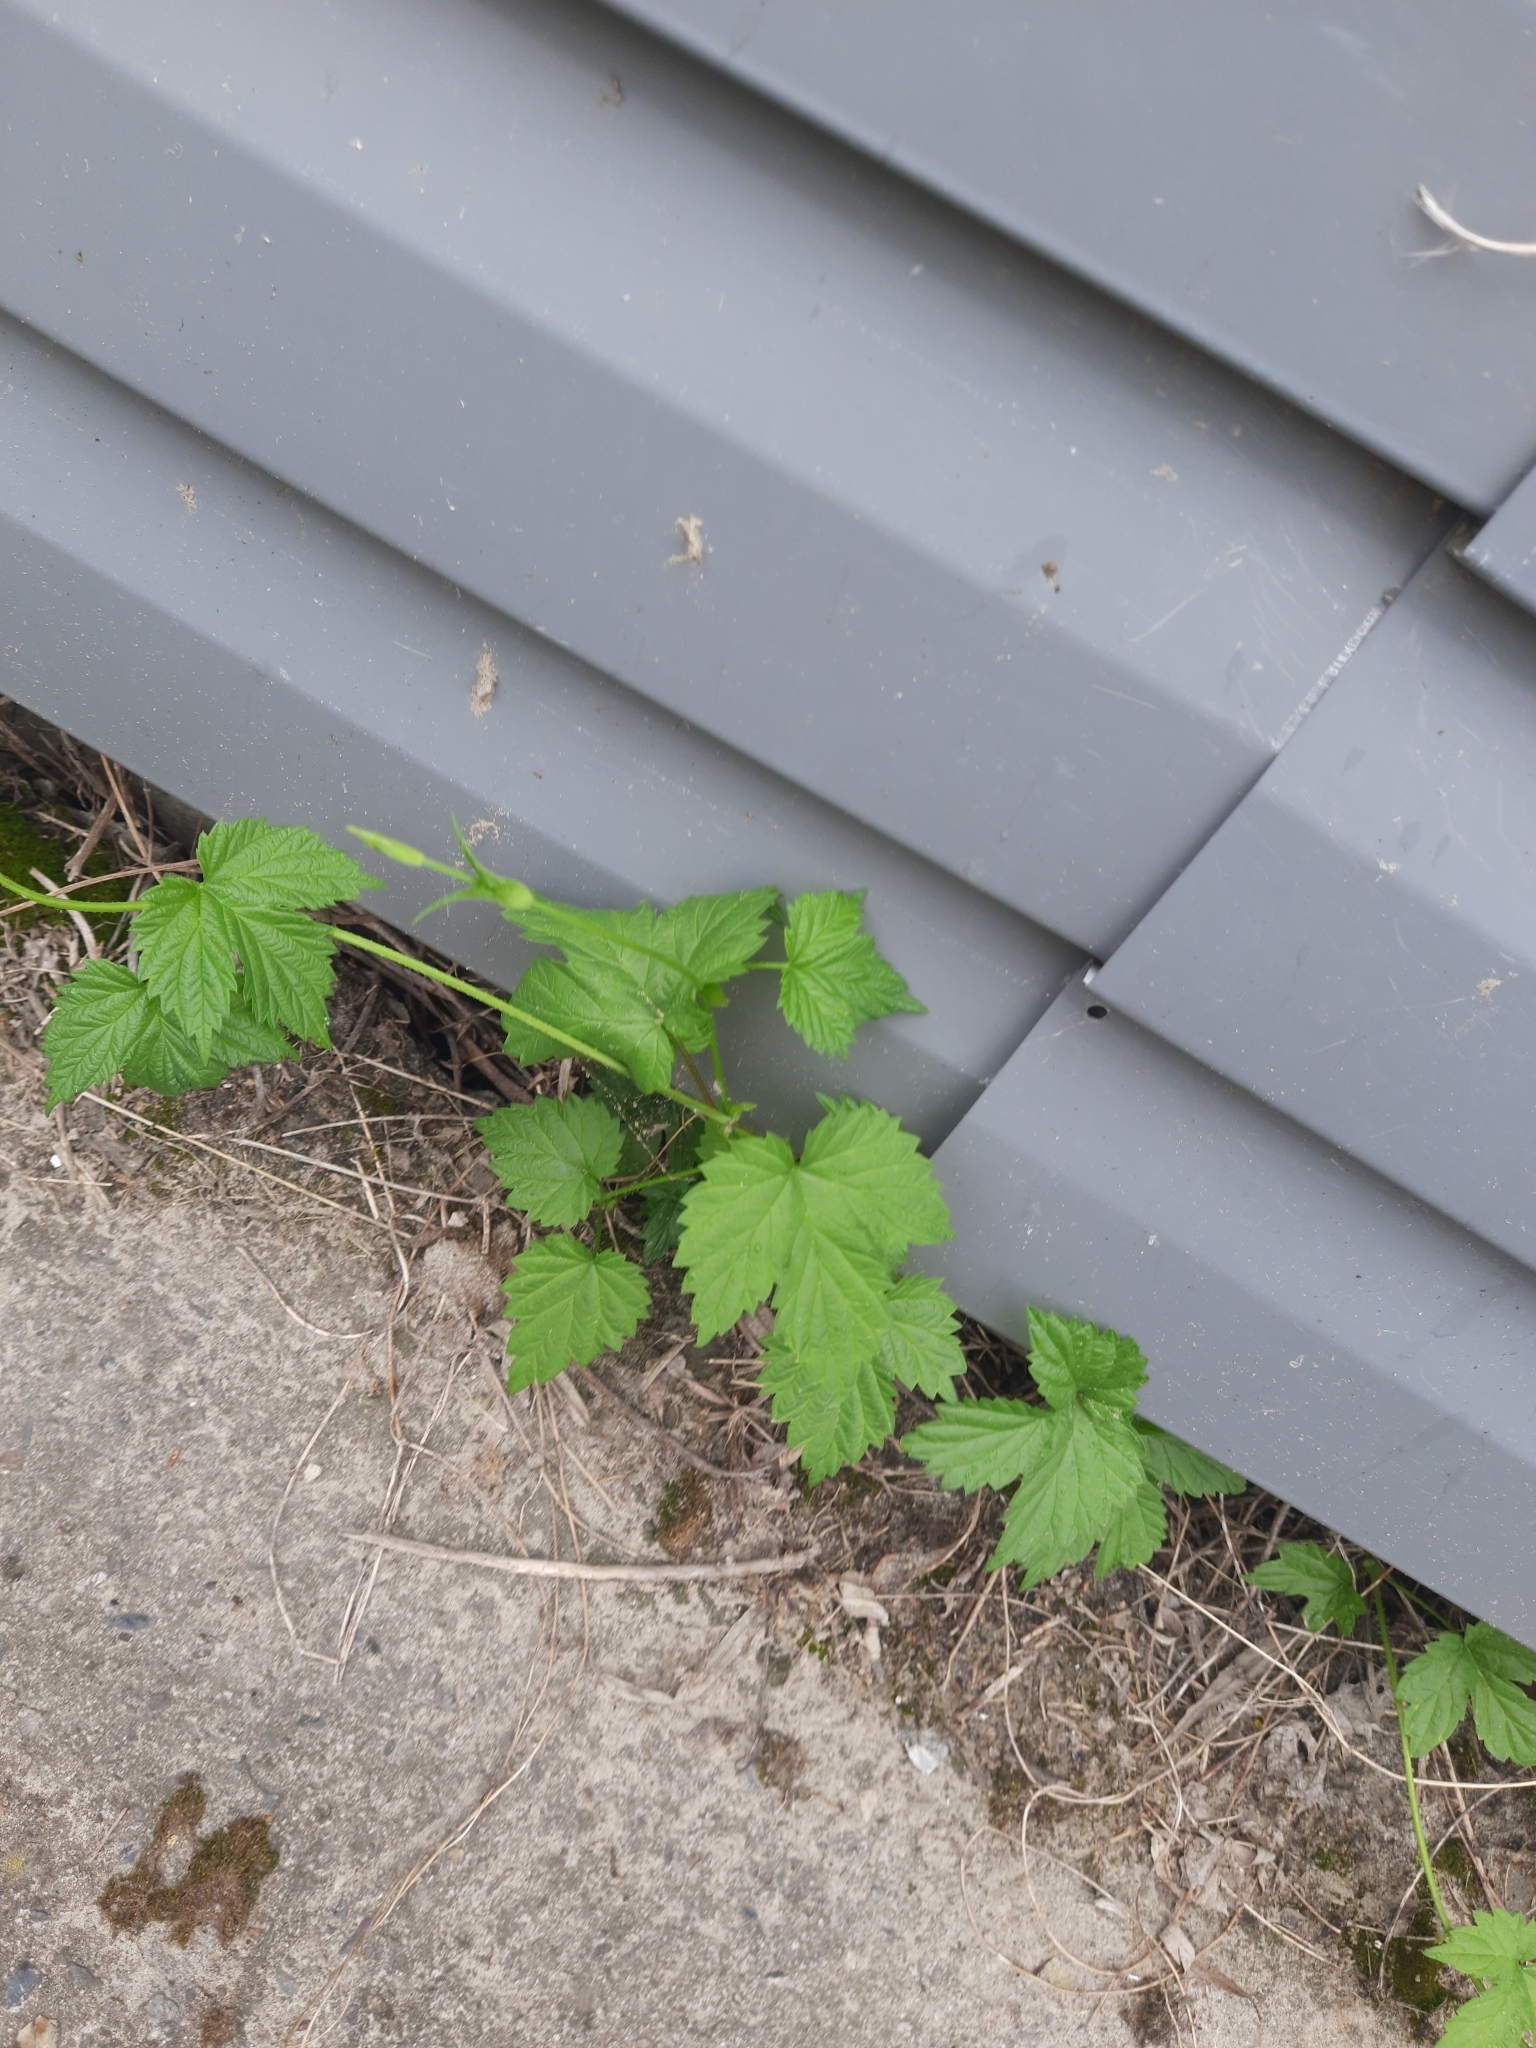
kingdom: Plantae
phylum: Tracheophyta
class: Magnoliopsida
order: Rosales
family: Cannabaceae
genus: Humulus
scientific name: Humulus lupulus
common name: Hop
